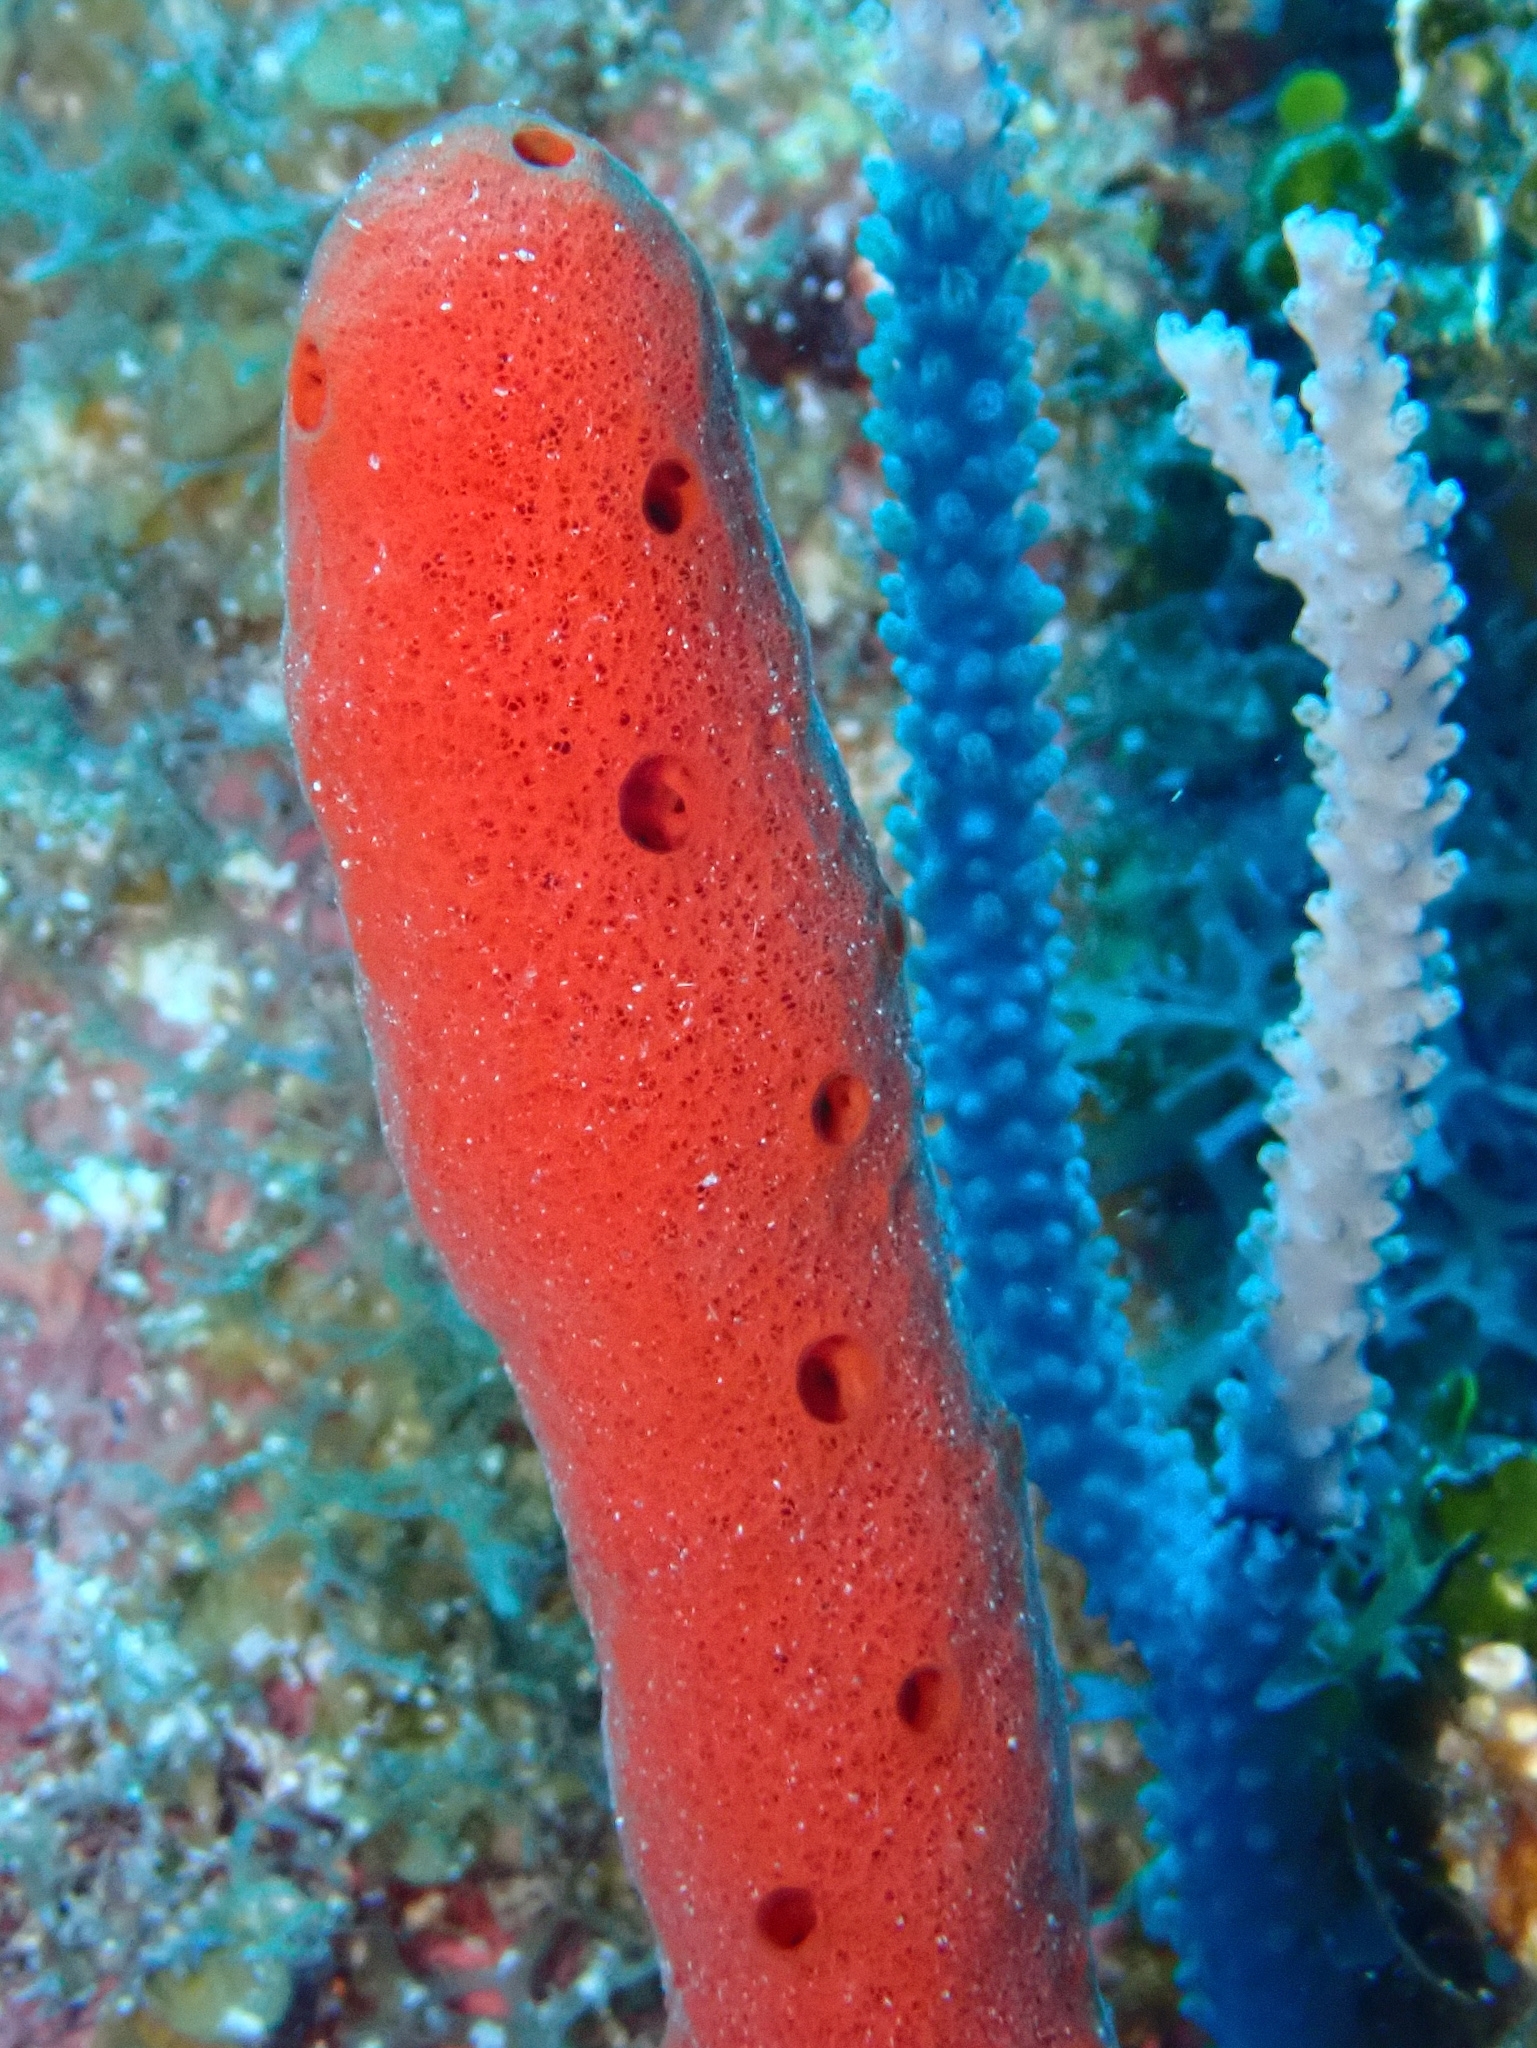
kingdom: Animalia
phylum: Porifera
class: Demospongiae
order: Haplosclerida
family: Niphatidae
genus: Amphimedon
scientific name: Amphimedon compressa
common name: Red sponge
